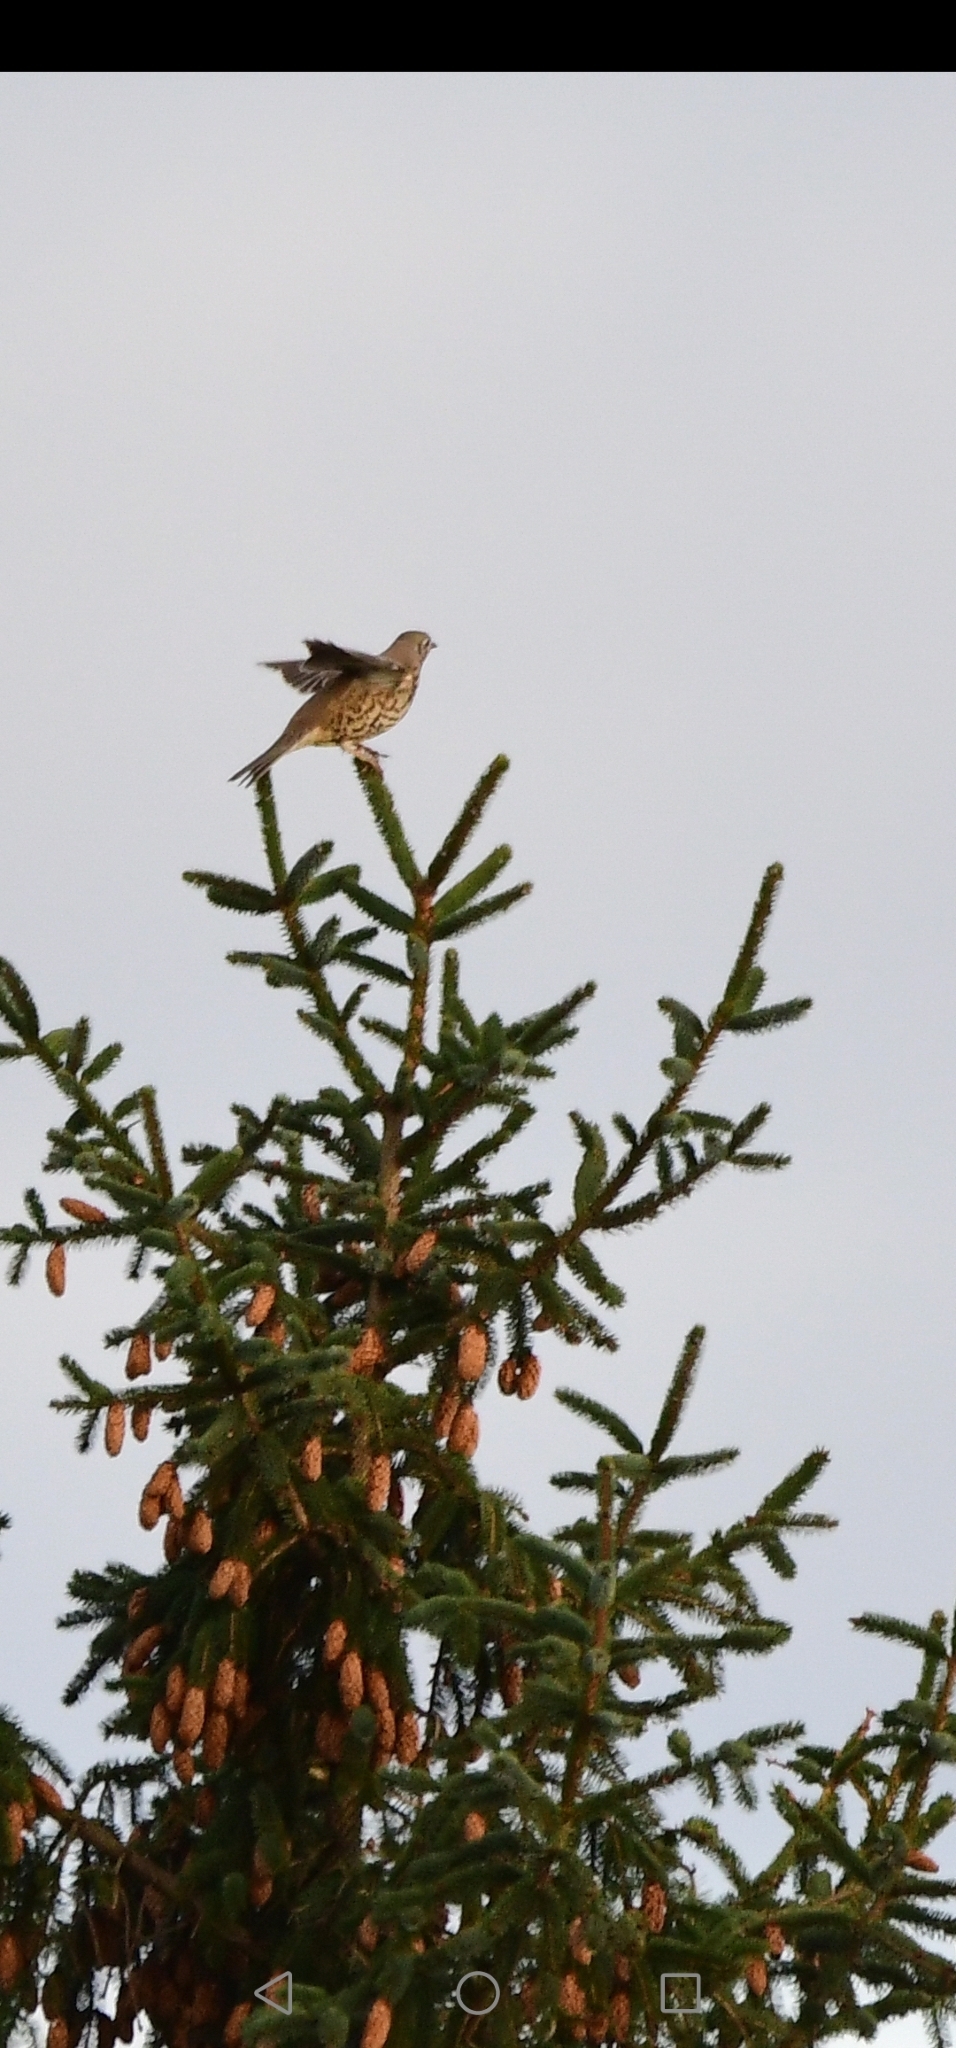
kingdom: Animalia
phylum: Chordata
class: Aves
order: Passeriformes
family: Turdidae
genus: Turdus
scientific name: Turdus viscivorus
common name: Mistle thrush
